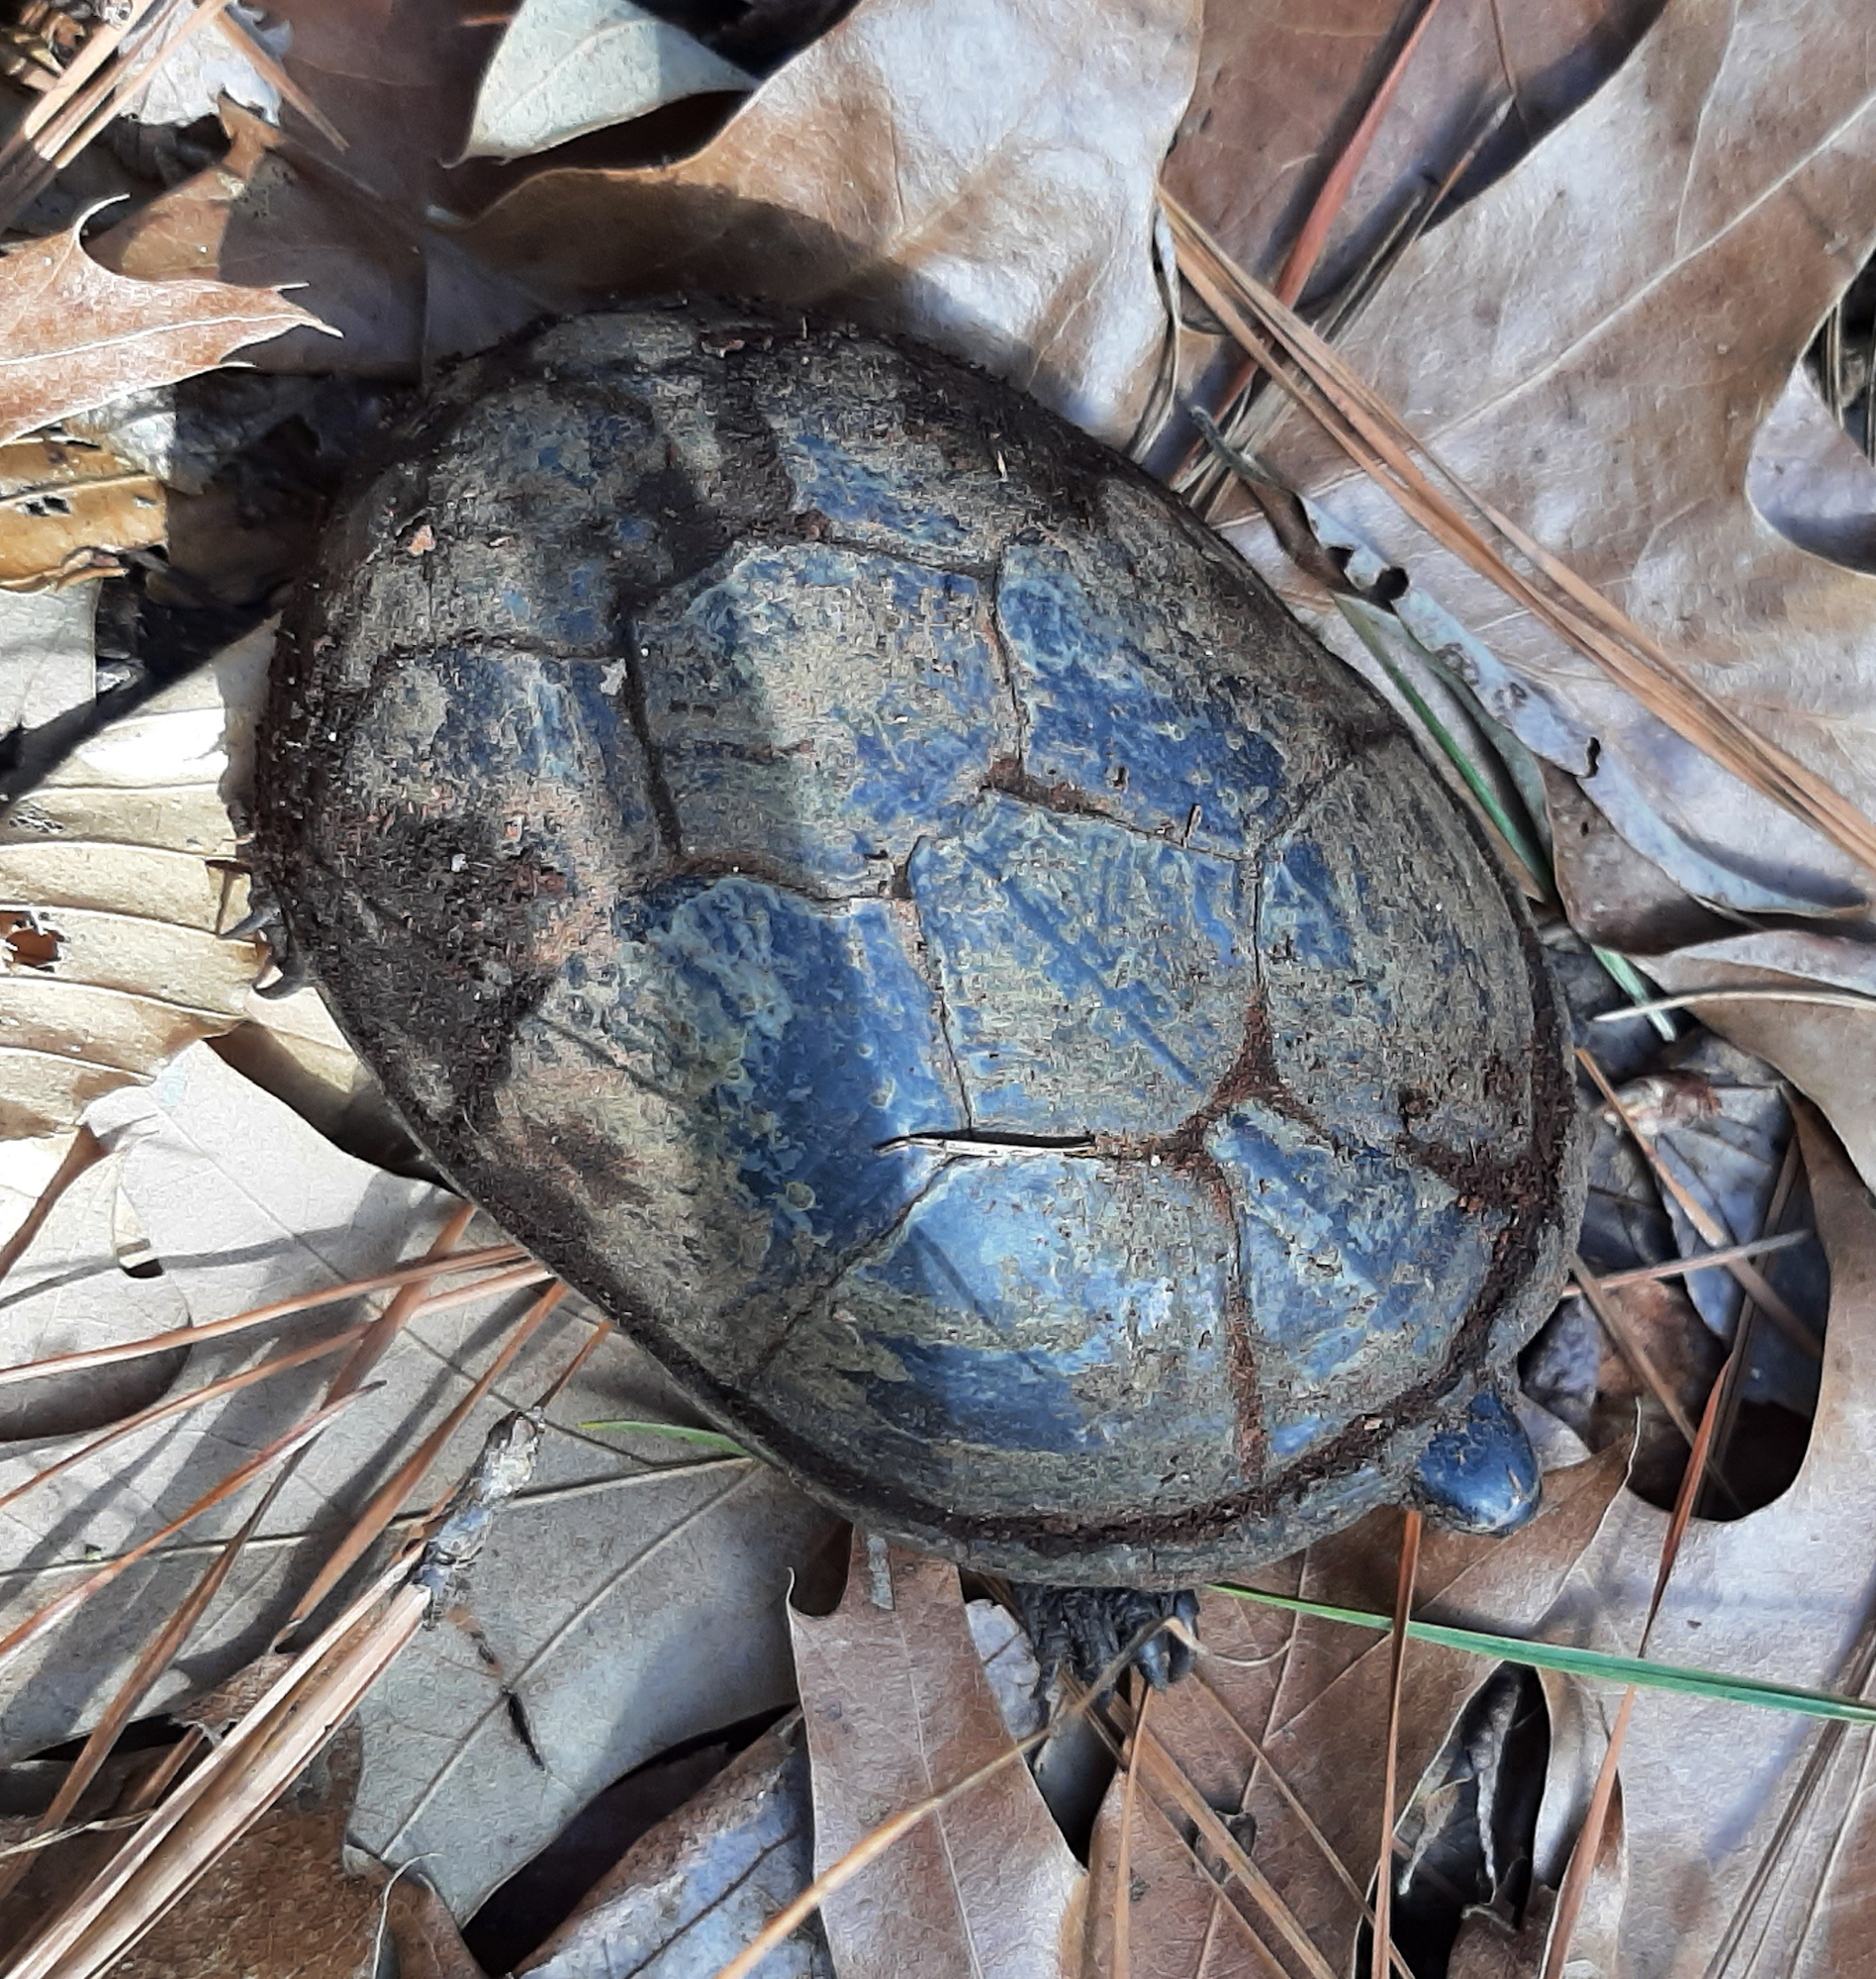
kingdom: Animalia
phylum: Chordata
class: Testudines
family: Kinosternidae
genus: Kinosternon
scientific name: Kinosternon subrubrum
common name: Eastern mud turtle
